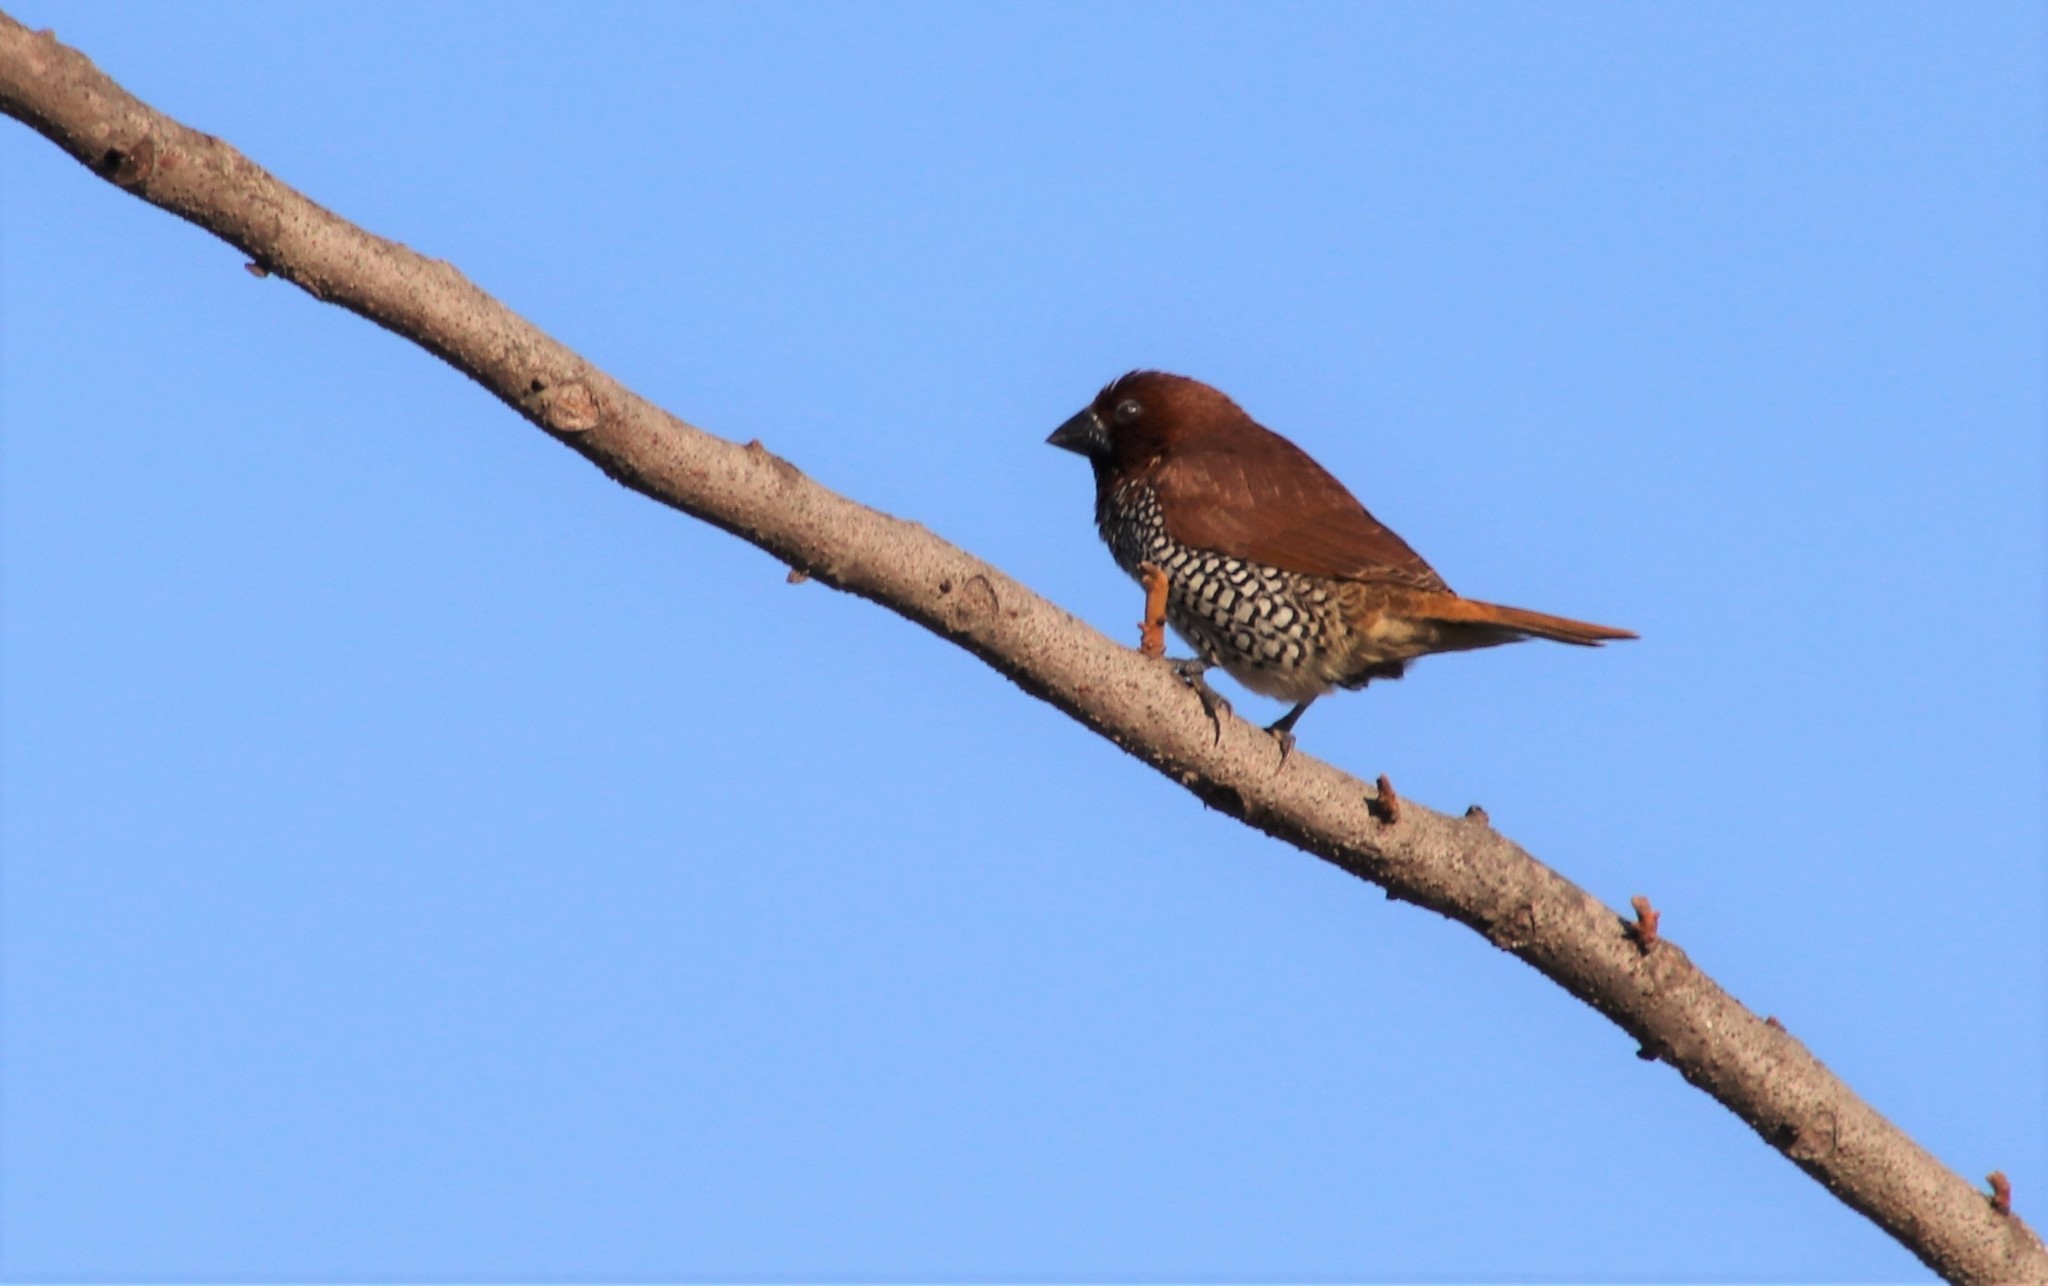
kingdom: Animalia
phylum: Chordata
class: Aves
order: Passeriformes
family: Estrildidae
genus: Lonchura
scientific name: Lonchura punctulata
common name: Scaly-breasted munia
